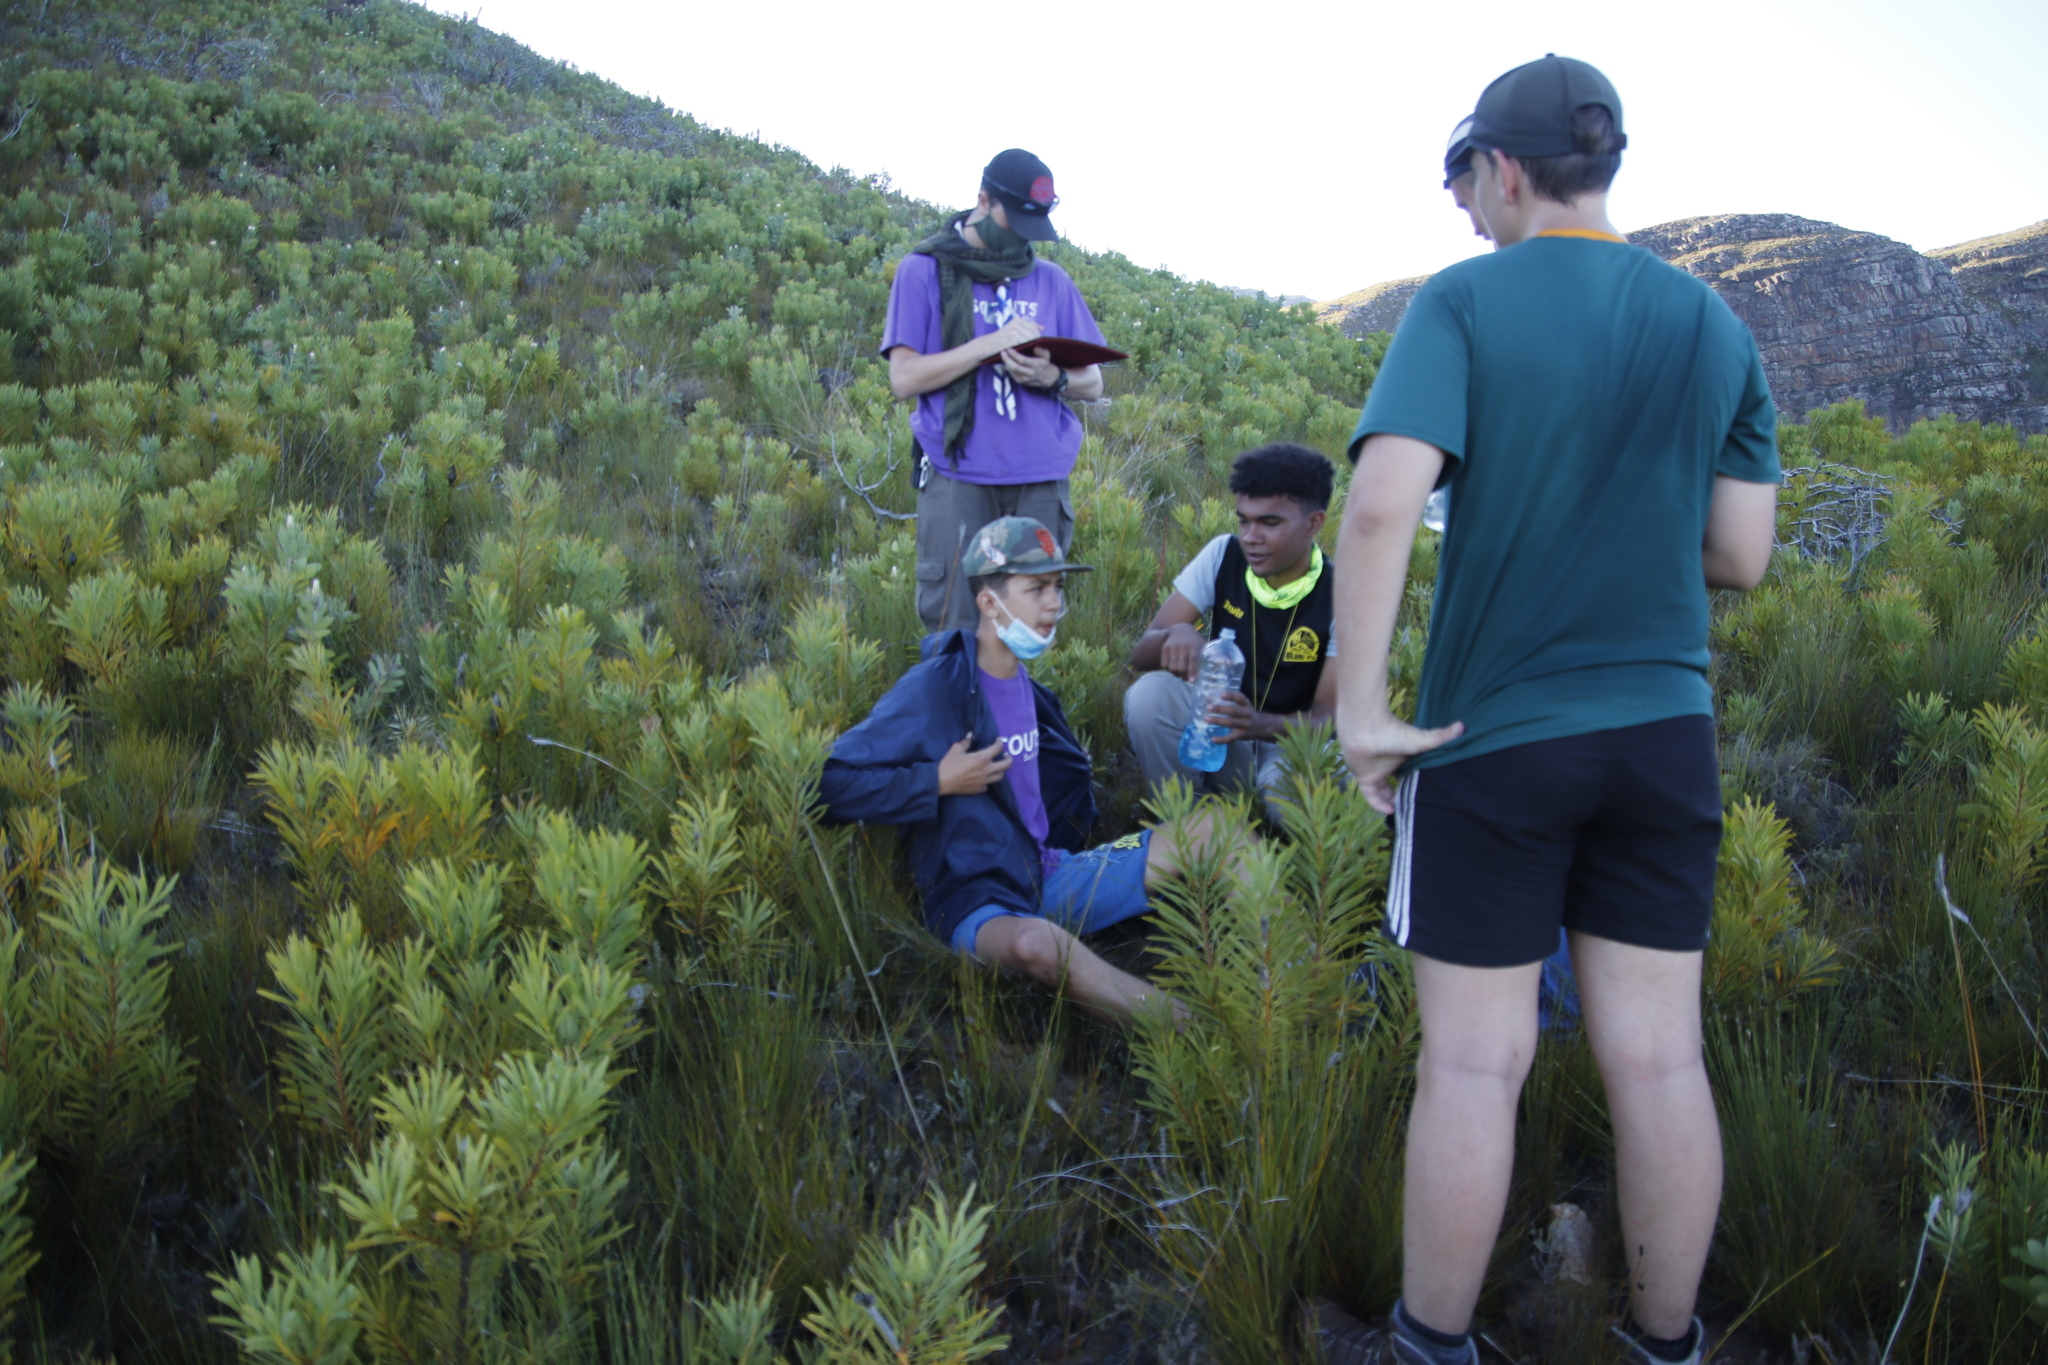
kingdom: Plantae
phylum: Tracheophyta
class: Magnoliopsida
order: Proteales
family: Proteaceae
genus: Protea
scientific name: Protea repens
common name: Sugarbush
